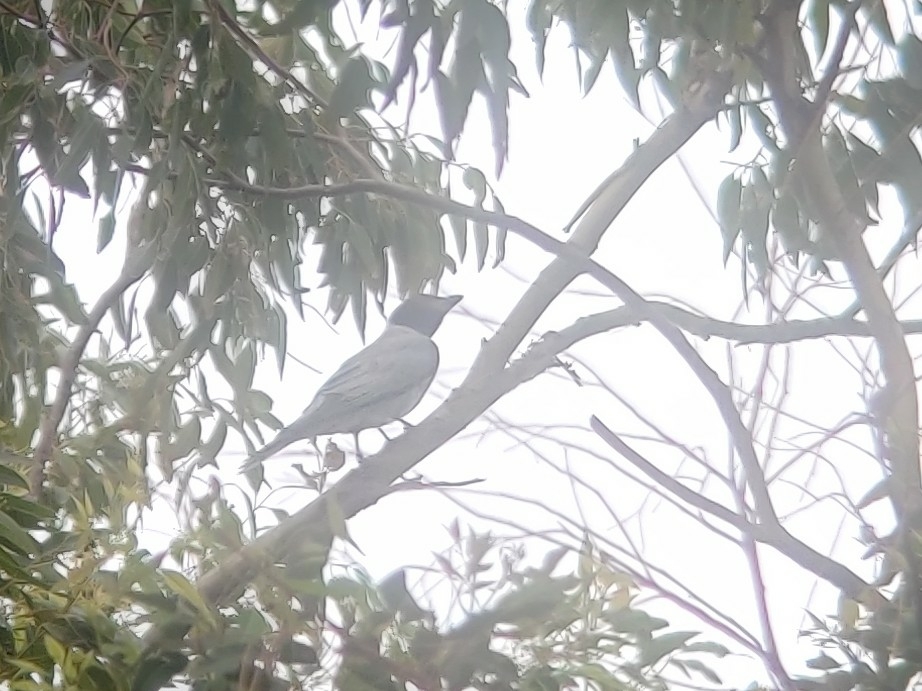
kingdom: Animalia
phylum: Chordata
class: Aves
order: Passeriformes
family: Campephagidae
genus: Coracina
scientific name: Coracina novaehollandiae
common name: Black-faced cuckooshrike
